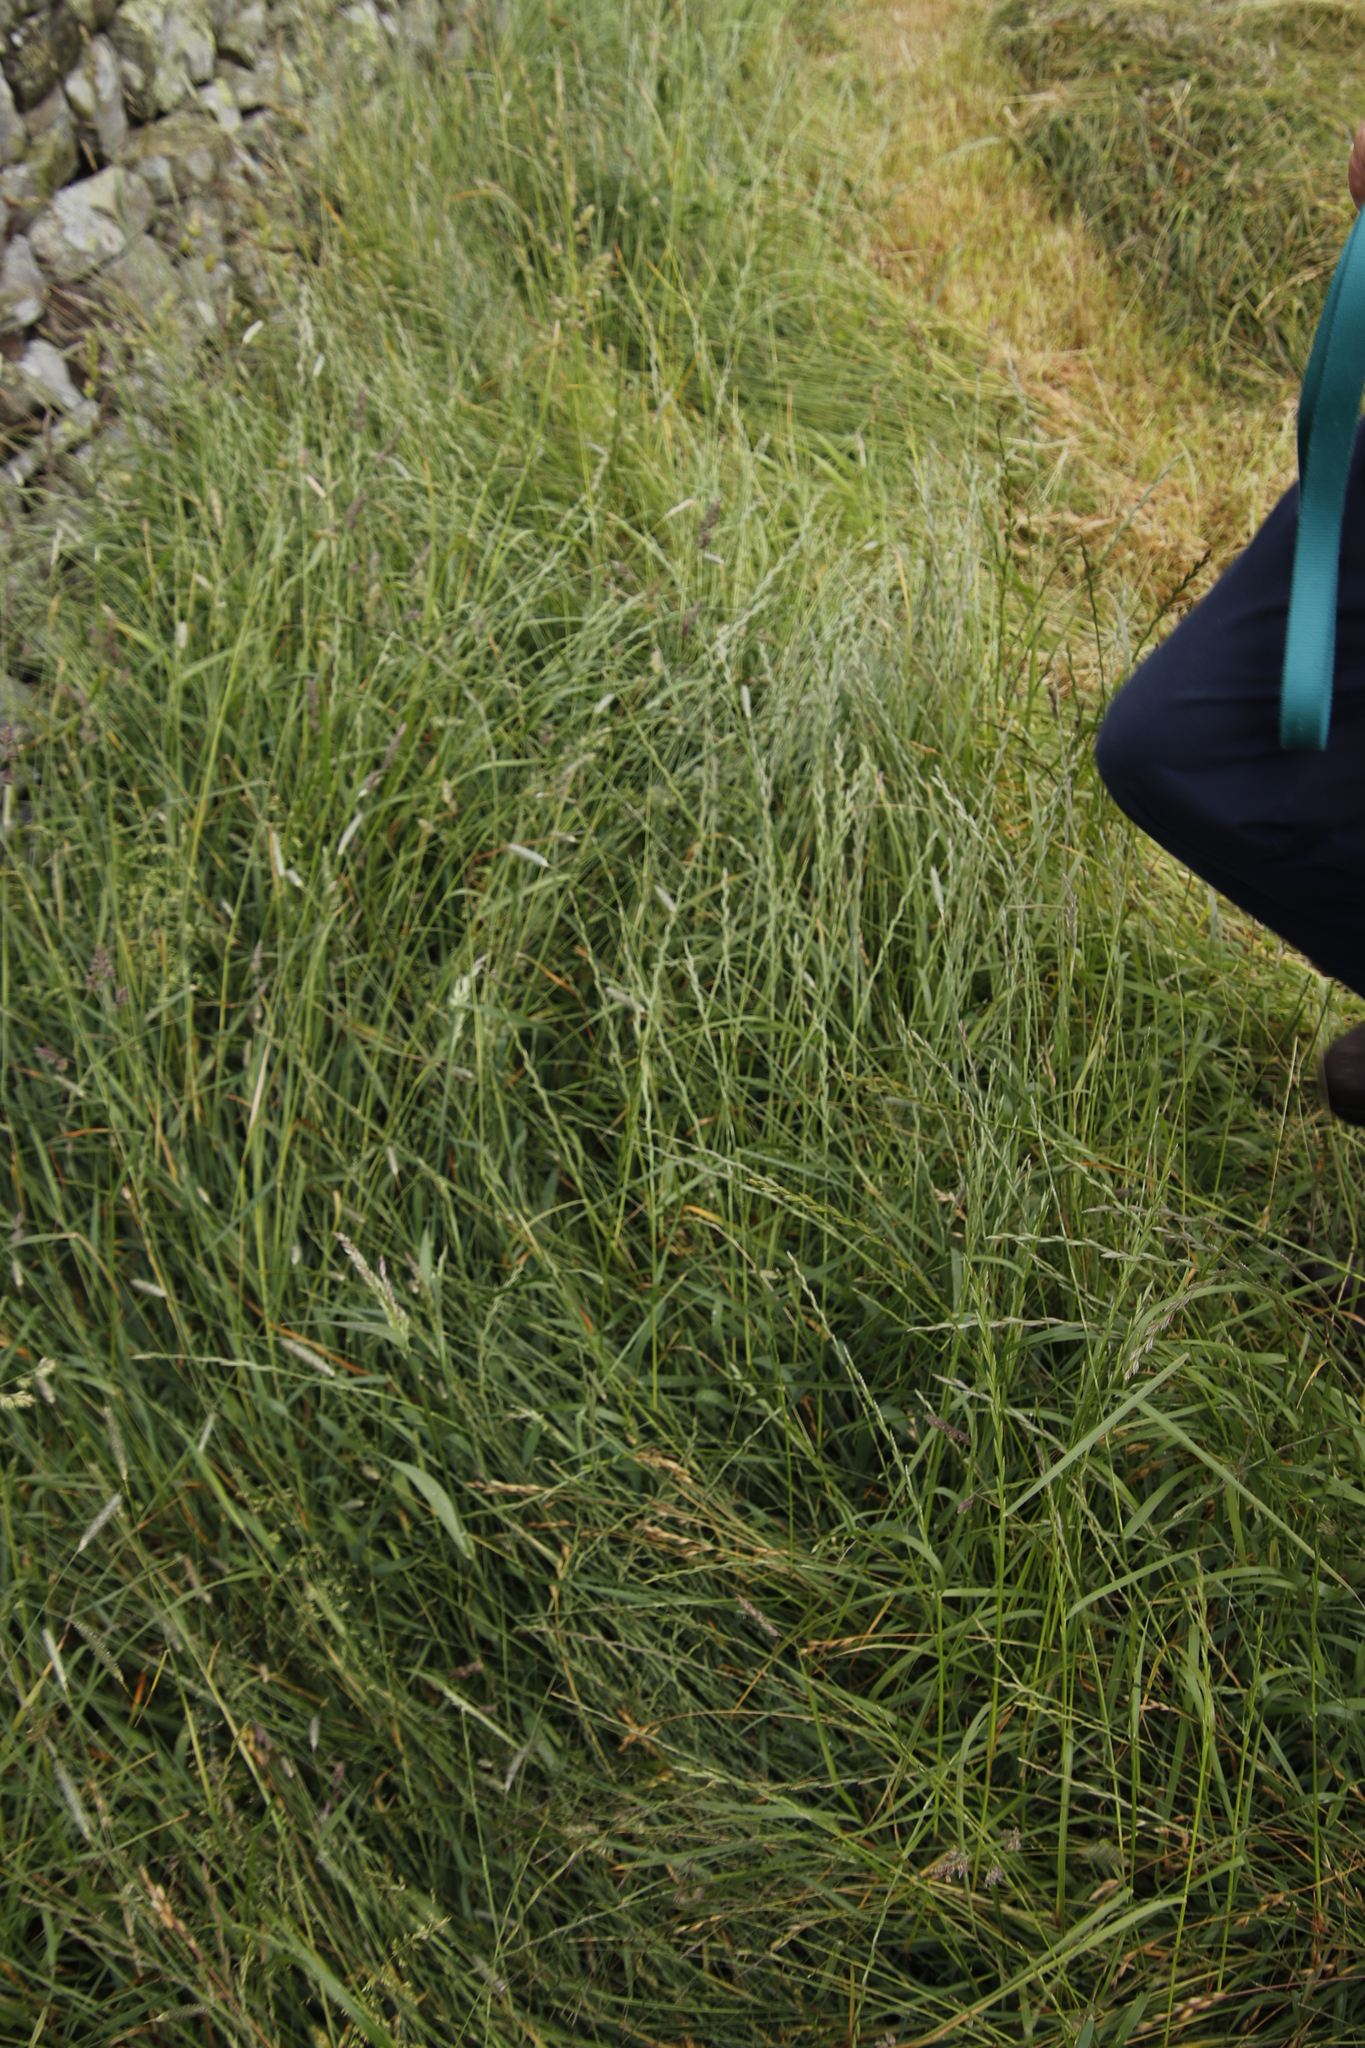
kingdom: Plantae
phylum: Tracheophyta
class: Liliopsida
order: Poales
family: Poaceae
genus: Lolium
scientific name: Lolium perenne
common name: Perennial ryegrass
